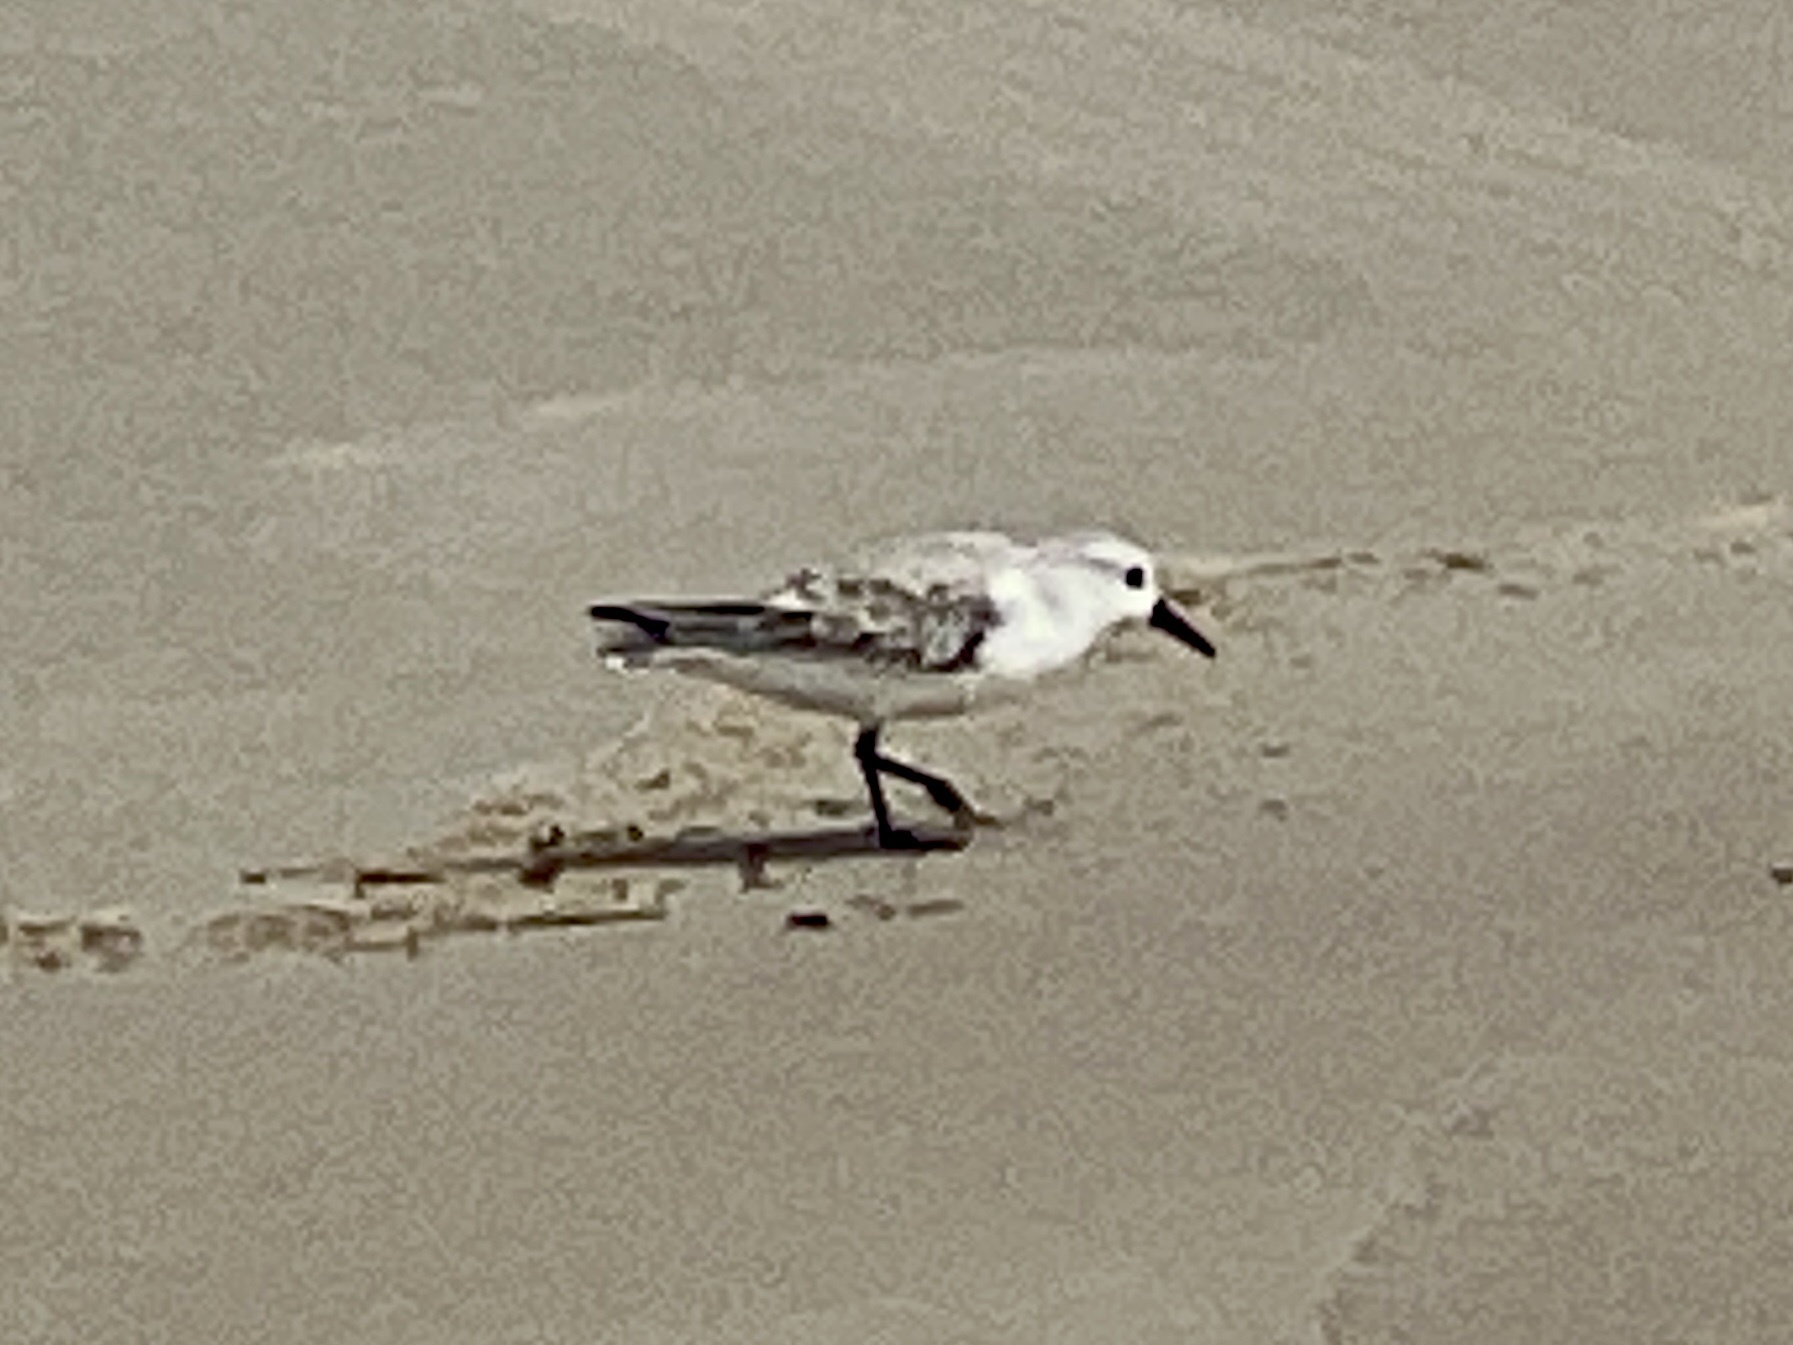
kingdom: Animalia
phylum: Chordata
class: Aves
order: Charadriiformes
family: Scolopacidae
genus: Calidris
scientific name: Calidris alba
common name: Sanderling
